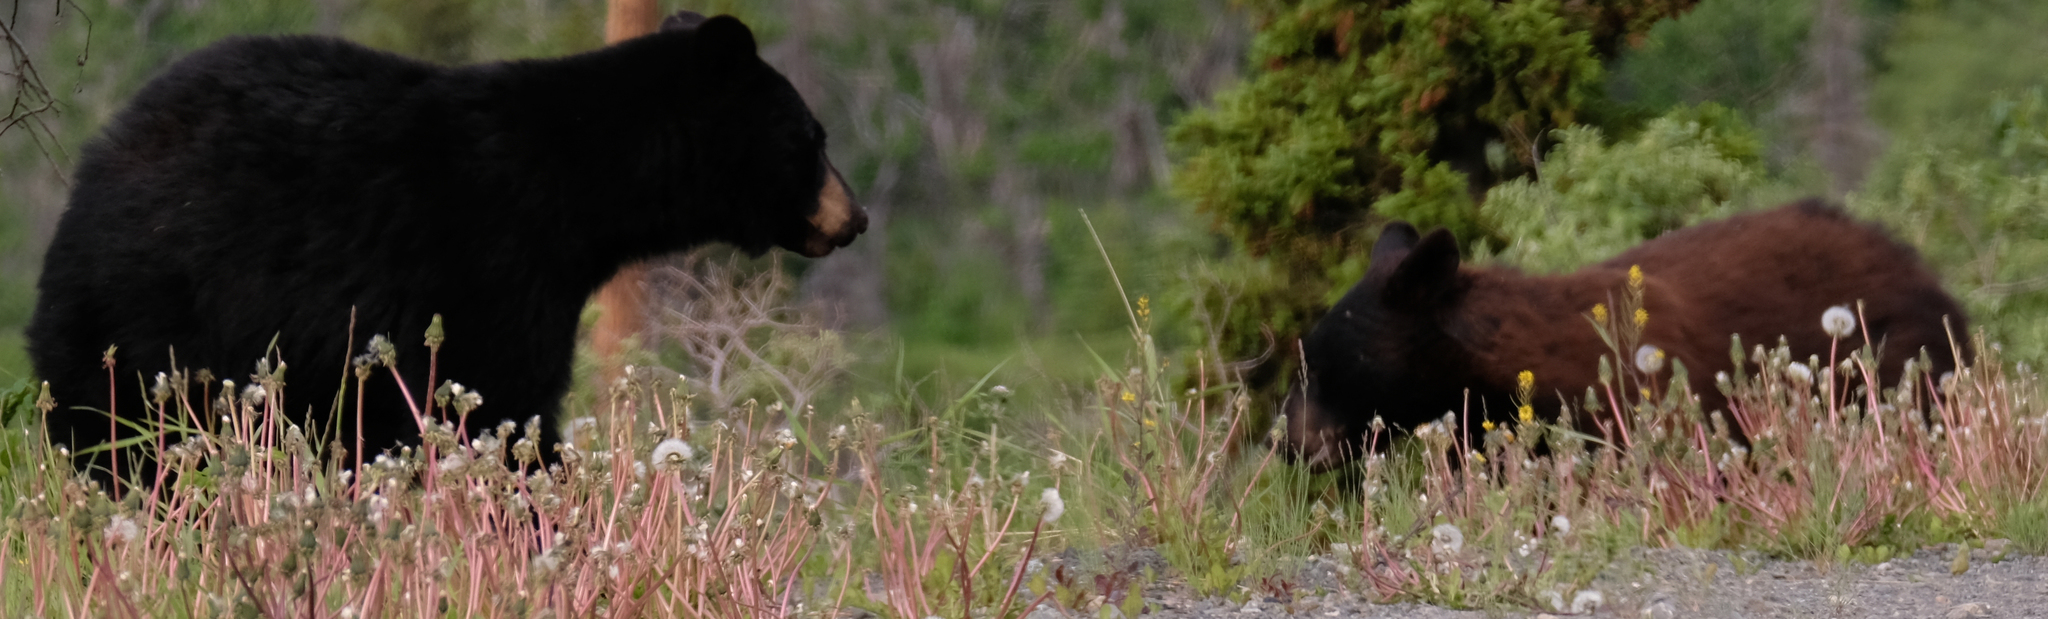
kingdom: Animalia
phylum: Chordata
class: Mammalia
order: Carnivora
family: Ursidae
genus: Ursus
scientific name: Ursus americanus
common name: American black bear
